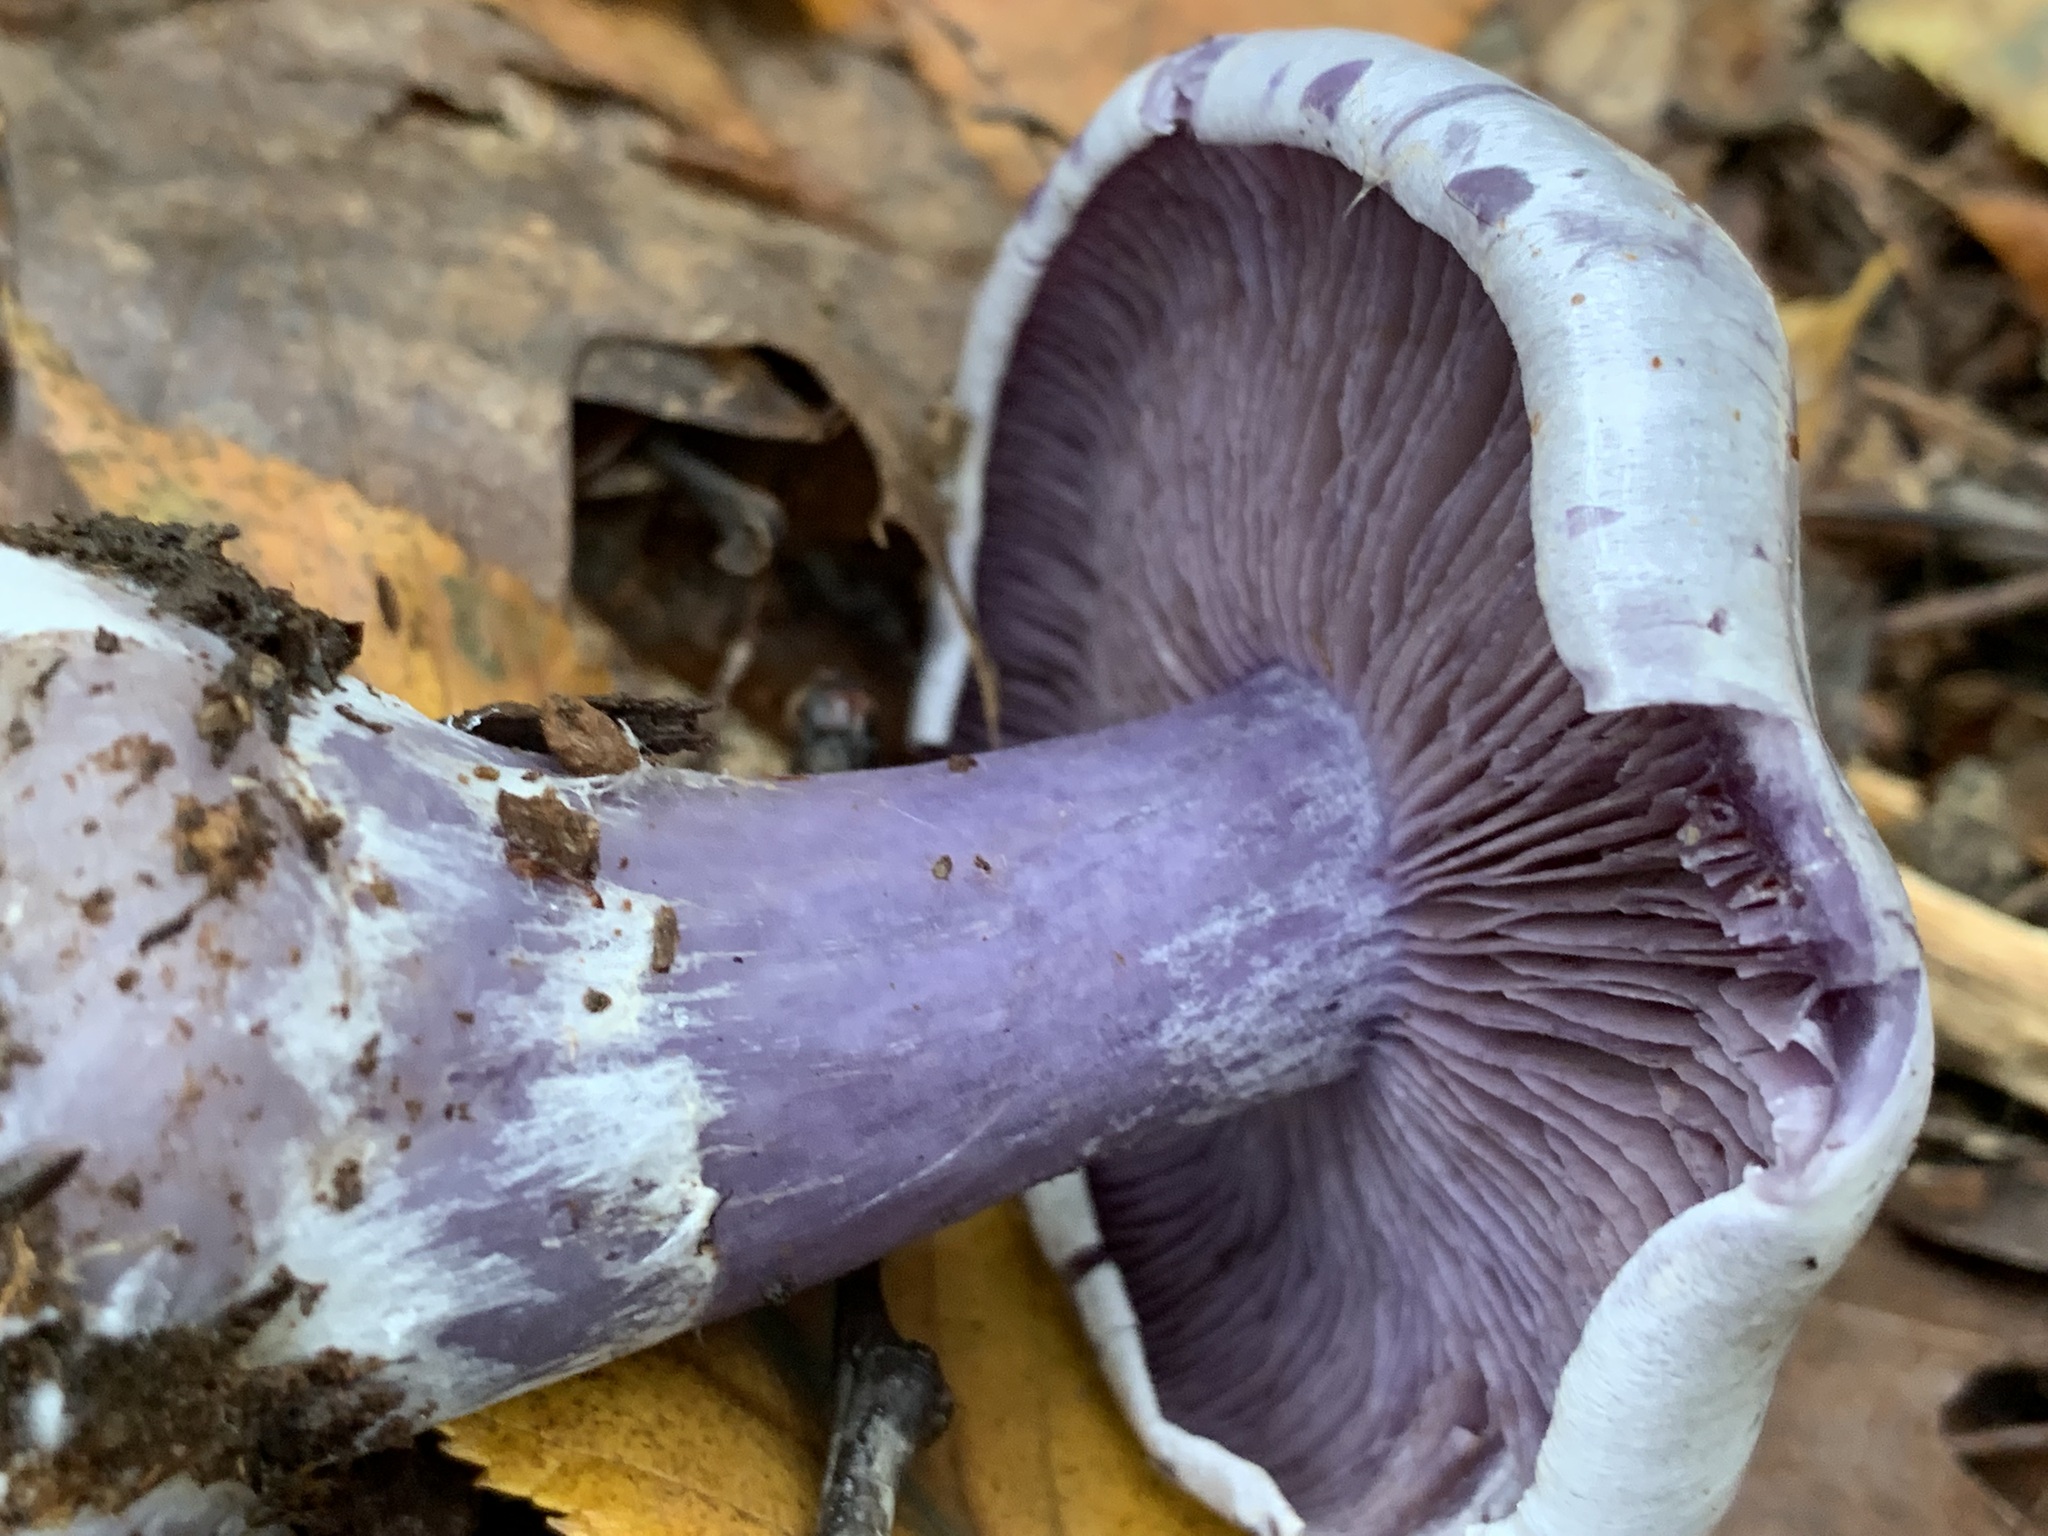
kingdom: Fungi
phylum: Basidiomycota
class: Agaricomycetes
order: Agaricales
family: Tricholomataceae
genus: Collybia
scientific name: Collybia
